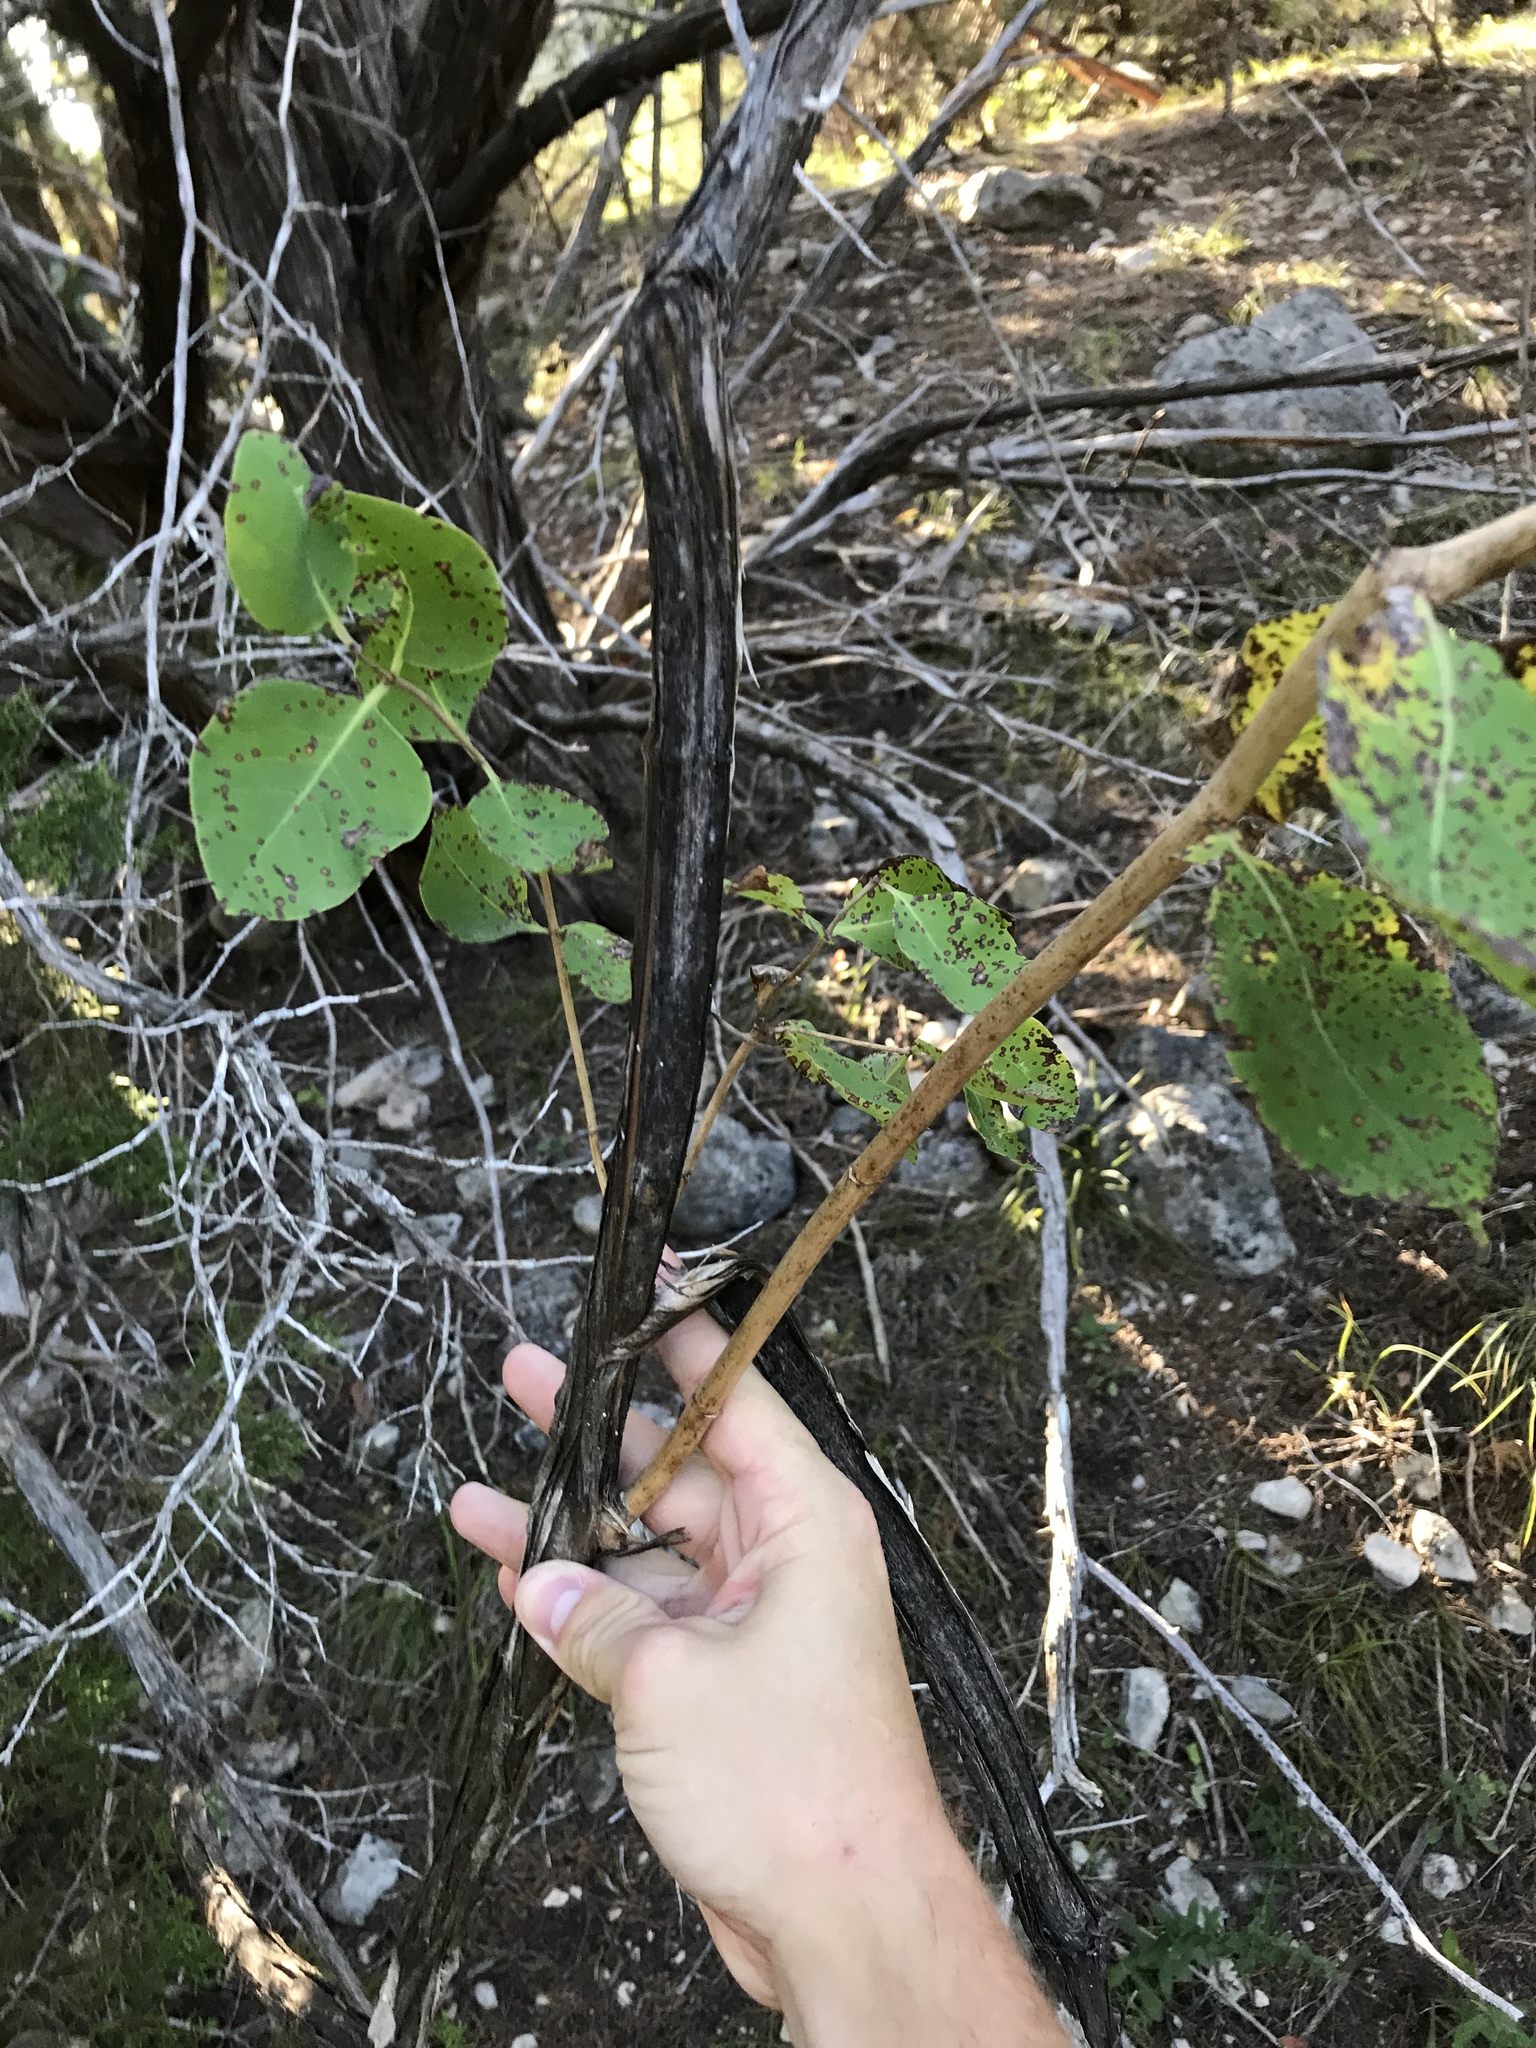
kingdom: Plantae
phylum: Tracheophyta
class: Magnoliopsida
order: Dipsacales
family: Caprifoliaceae
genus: Lonicera
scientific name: Lonicera albiflora
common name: White honeysuckle
